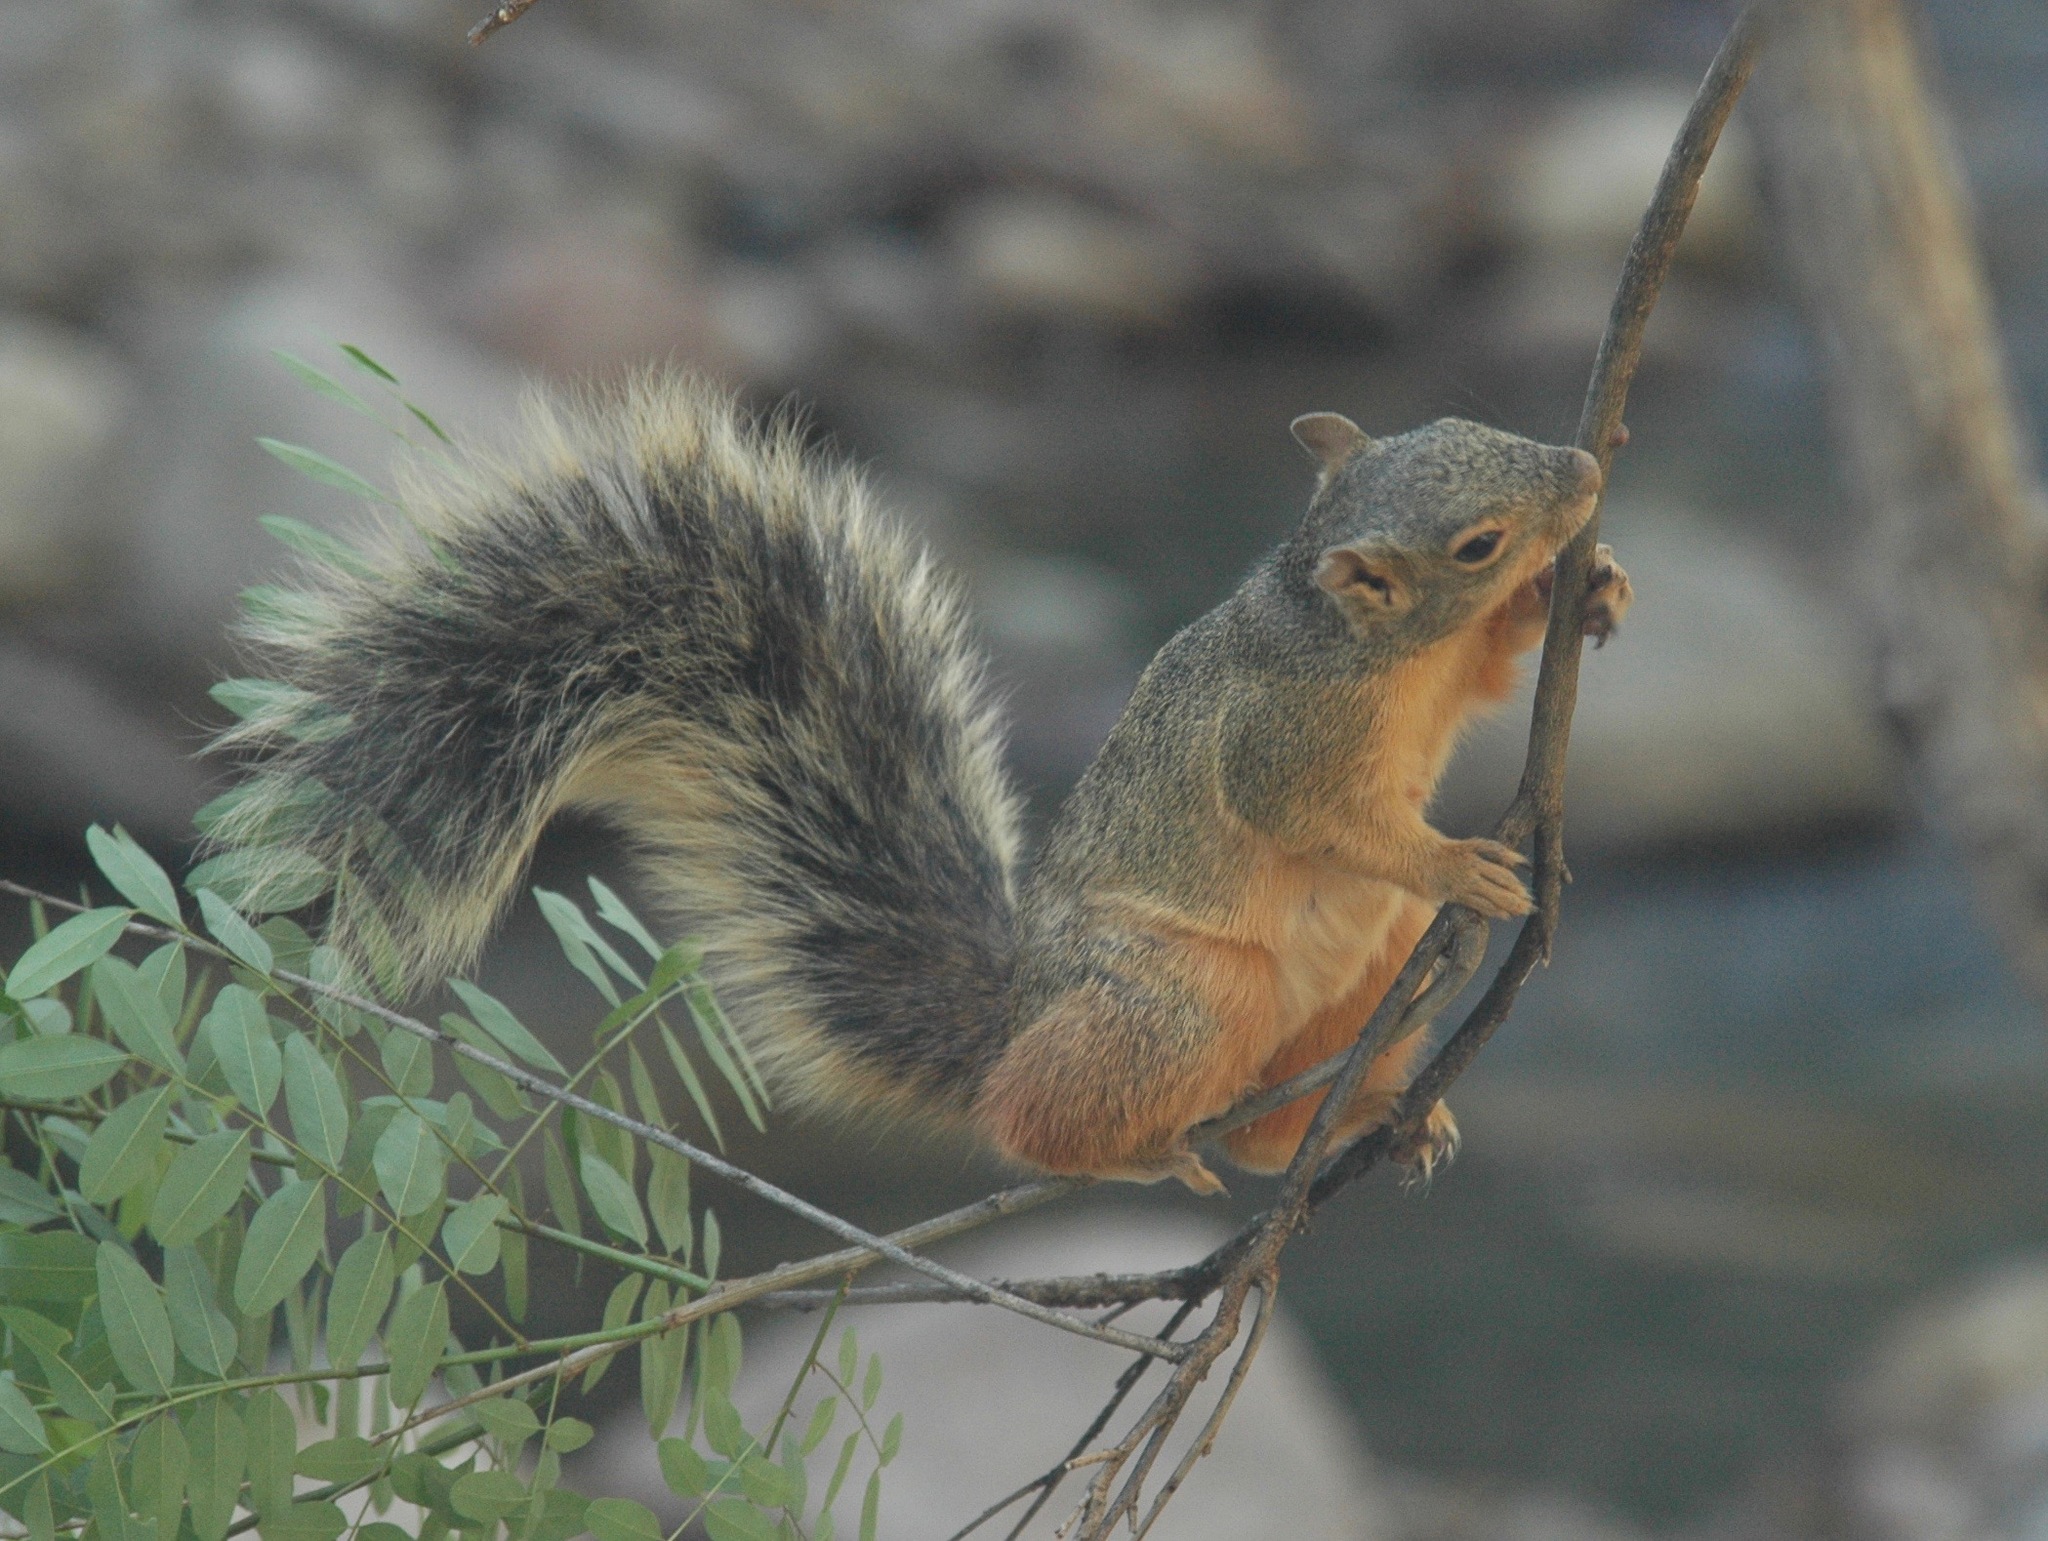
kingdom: Animalia
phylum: Chordata
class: Mammalia
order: Rodentia
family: Sciuridae
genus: Sciurus
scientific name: Sciurus nayaritensis
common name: Mexican fox squirrel
